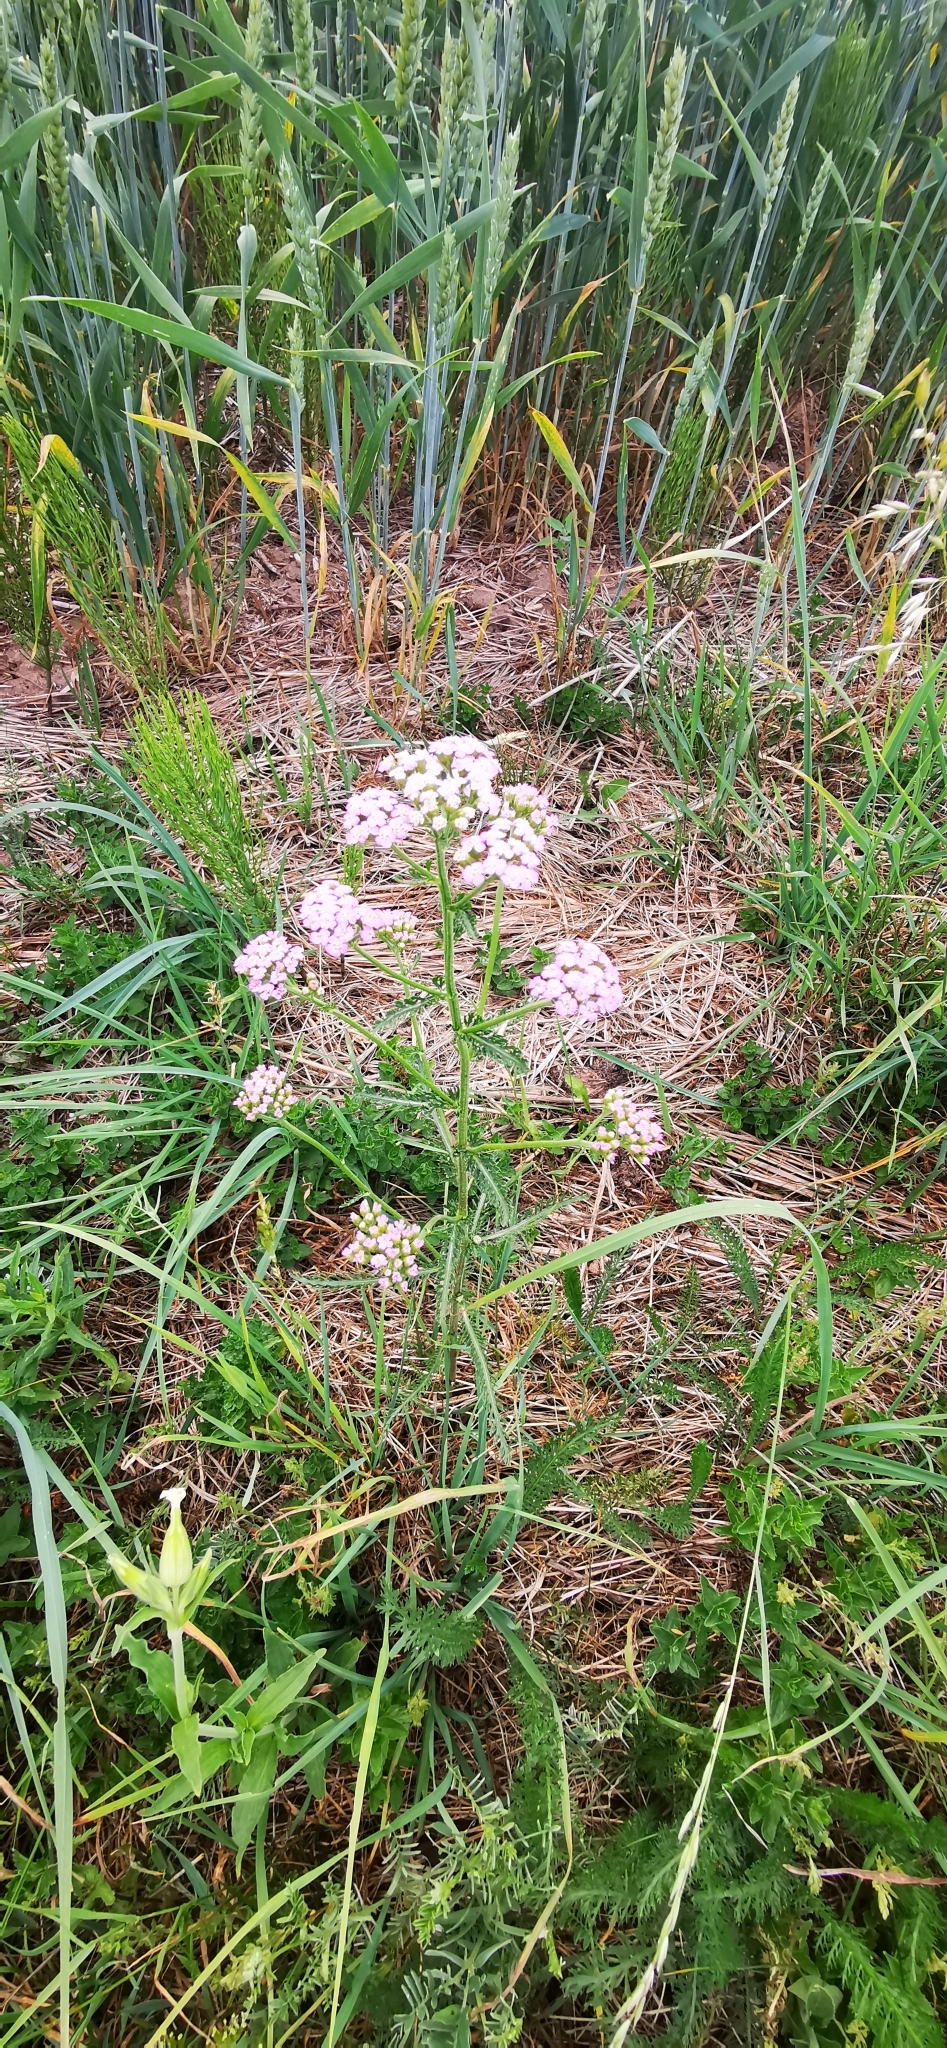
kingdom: Plantae
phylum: Tracheophyta
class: Magnoliopsida
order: Asterales
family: Asteraceae
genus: Achillea
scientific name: Achillea millefolium
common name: Yarrow
